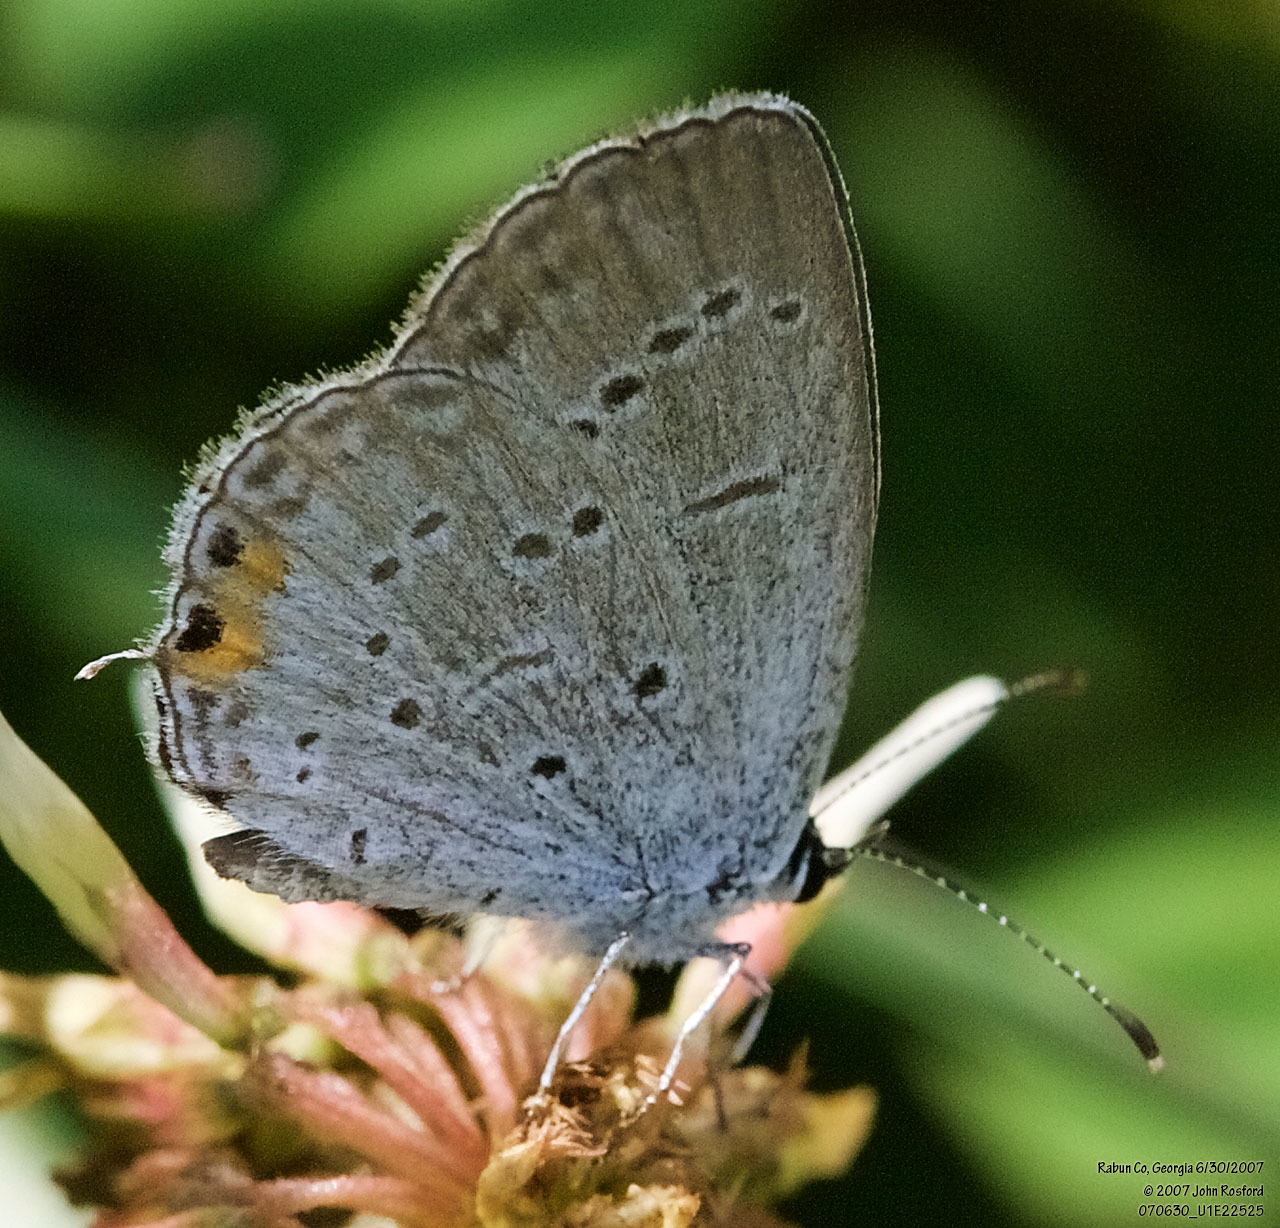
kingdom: Animalia
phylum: Arthropoda
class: Insecta
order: Lepidoptera
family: Lycaenidae
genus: Elkalyce
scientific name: Elkalyce comyntas
